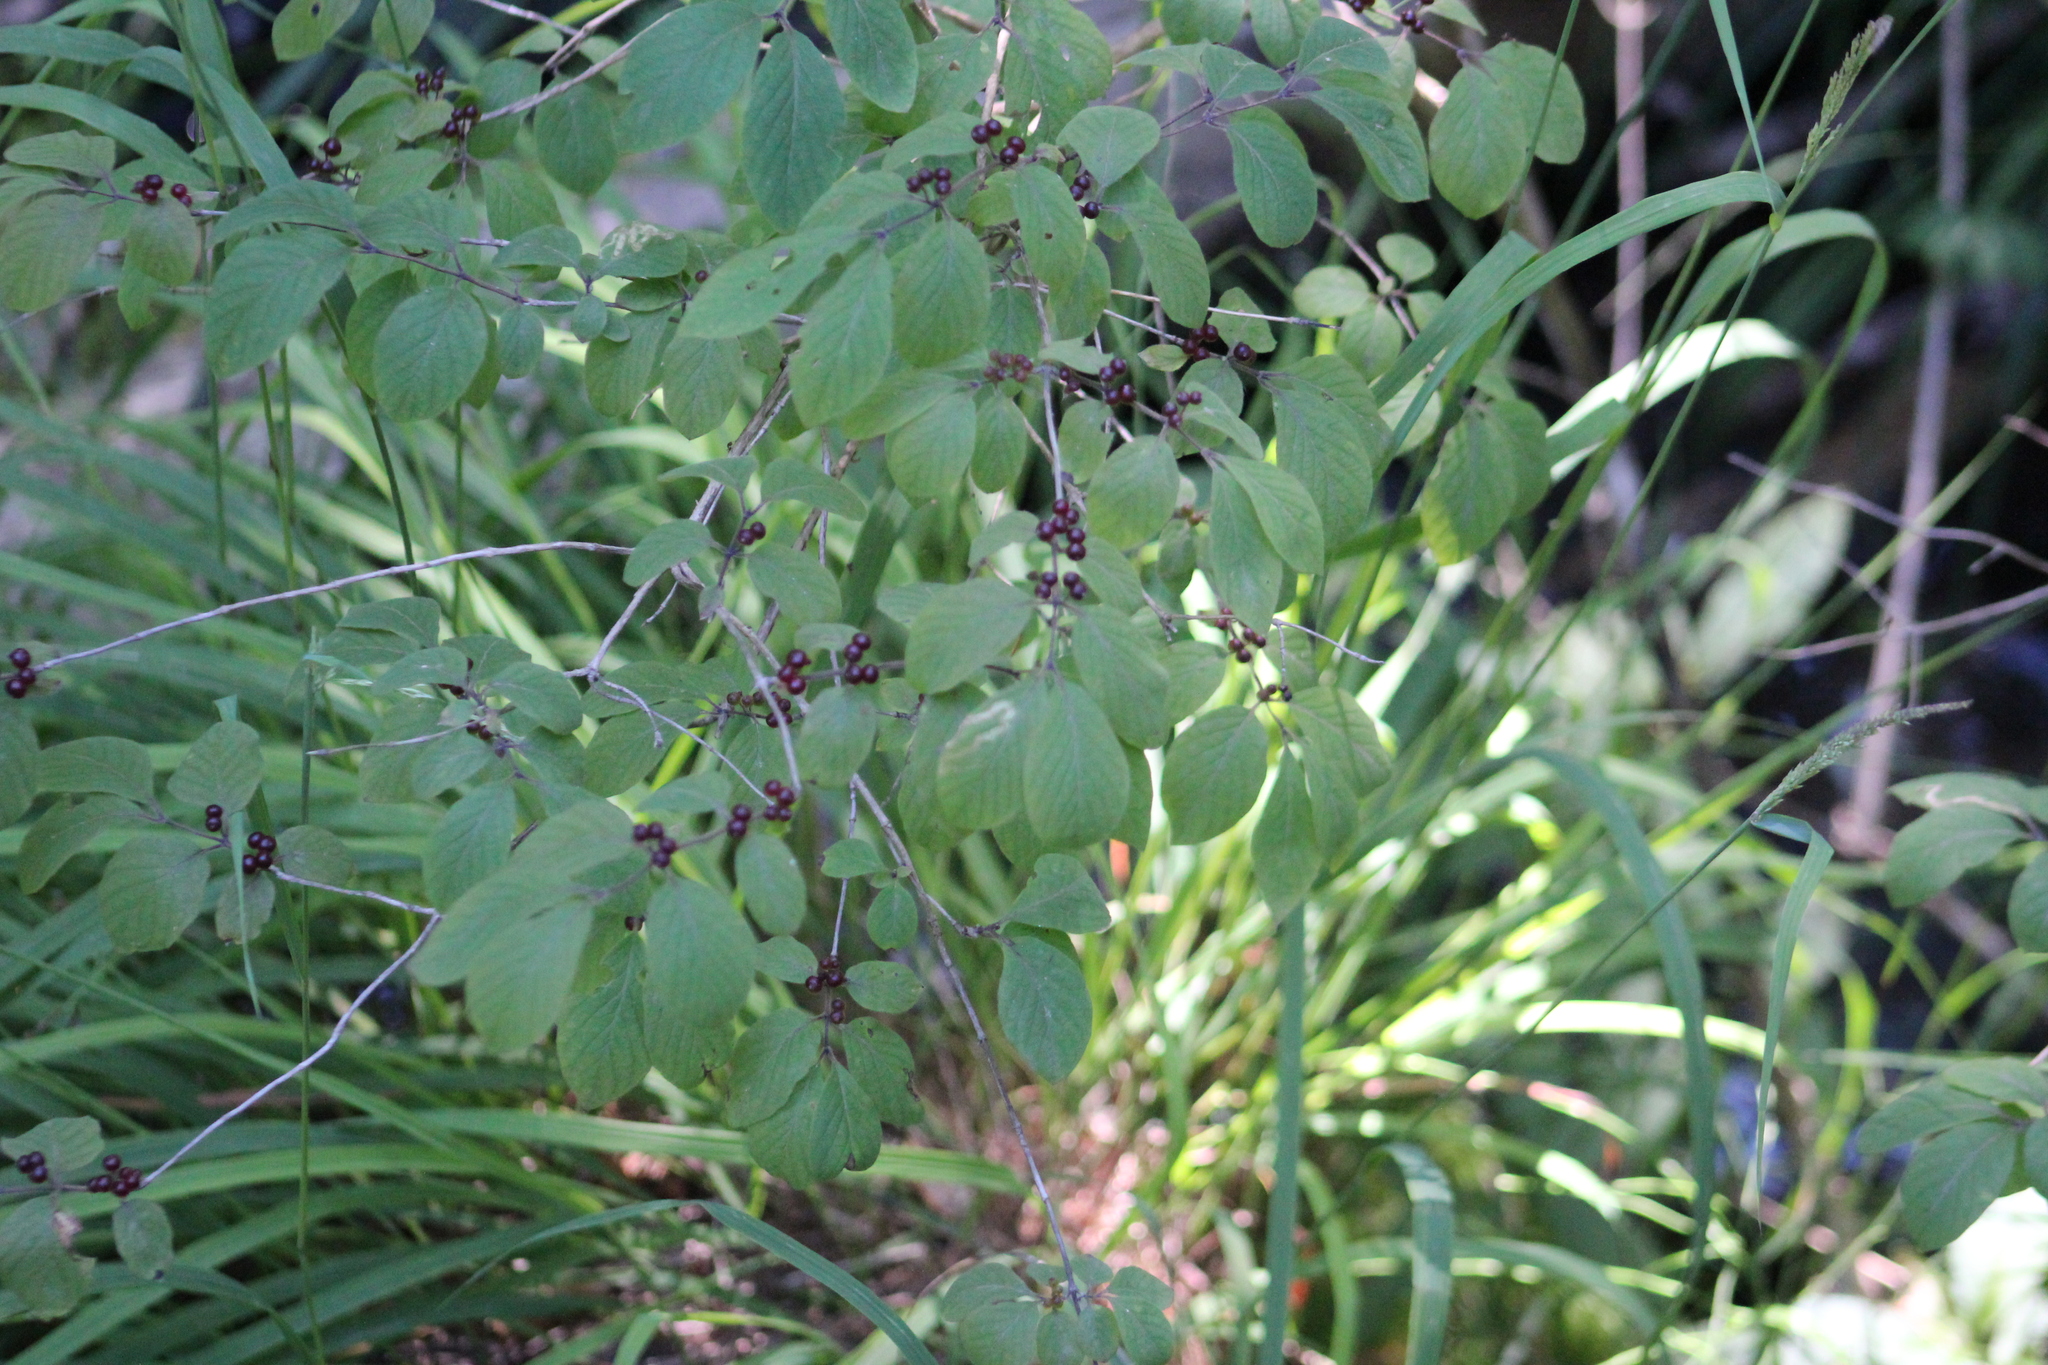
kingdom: Plantae
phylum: Tracheophyta
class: Magnoliopsida
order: Dipsacales
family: Caprifoliaceae
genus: Lonicera
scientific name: Lonicera xylosteum
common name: Fly honeysuckle
